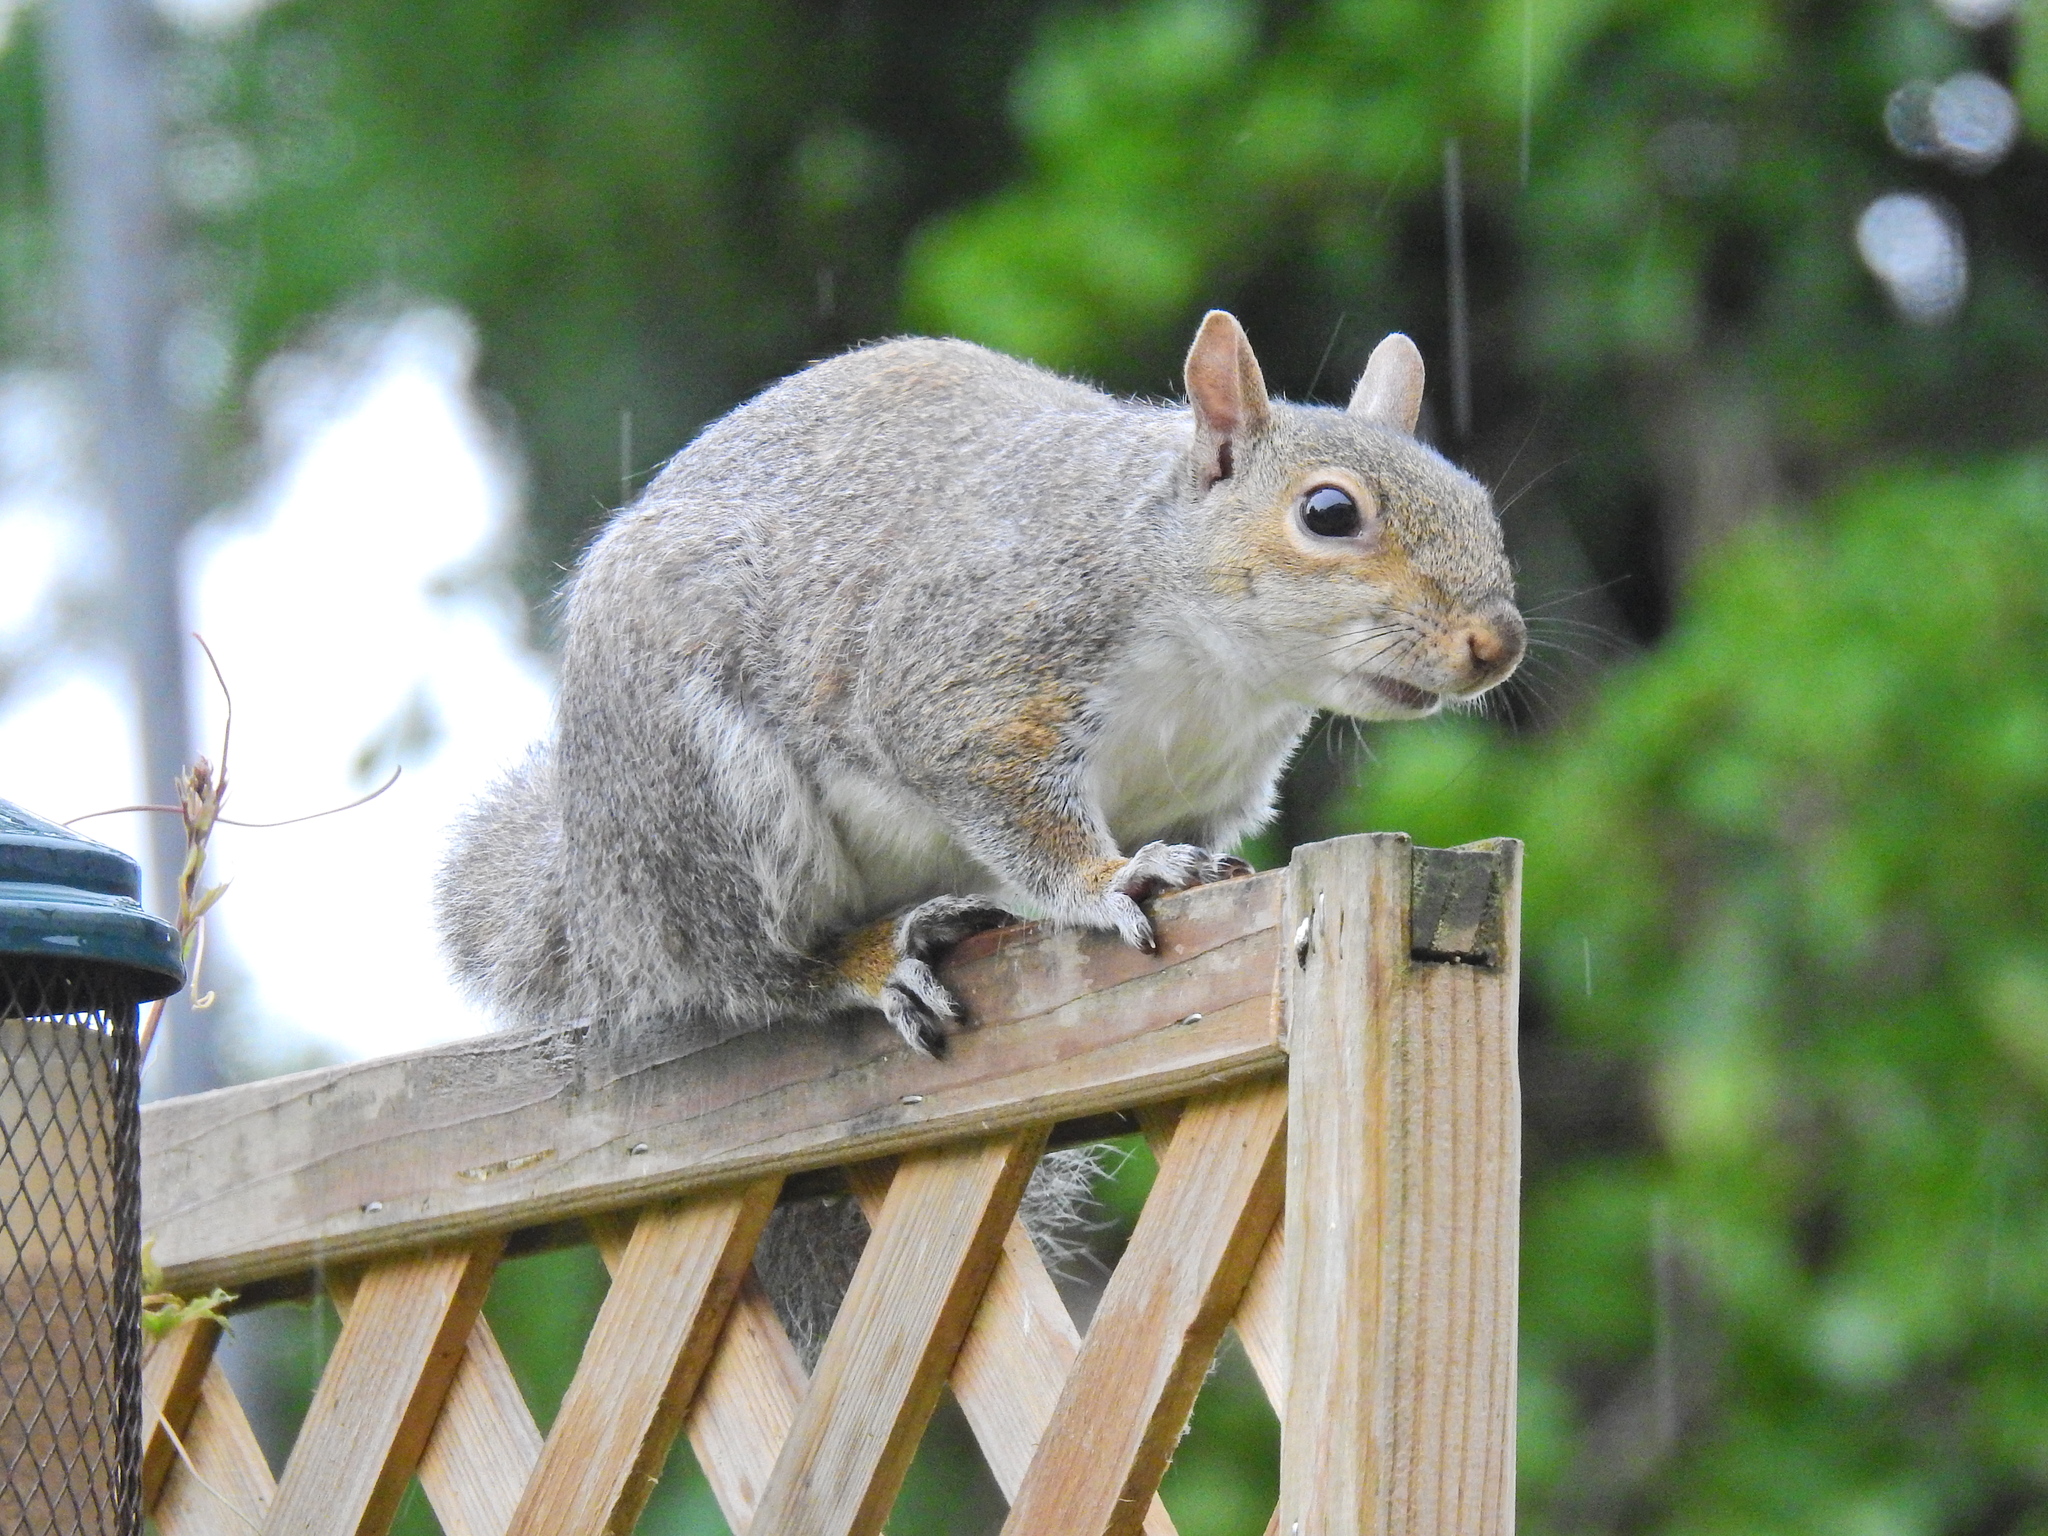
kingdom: Animalia
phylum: Chordata
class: Mammalia
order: Rodentia
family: Sciuridae
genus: Sciurus
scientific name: Sciurus carolinensis
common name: Eastern gray squirrel
